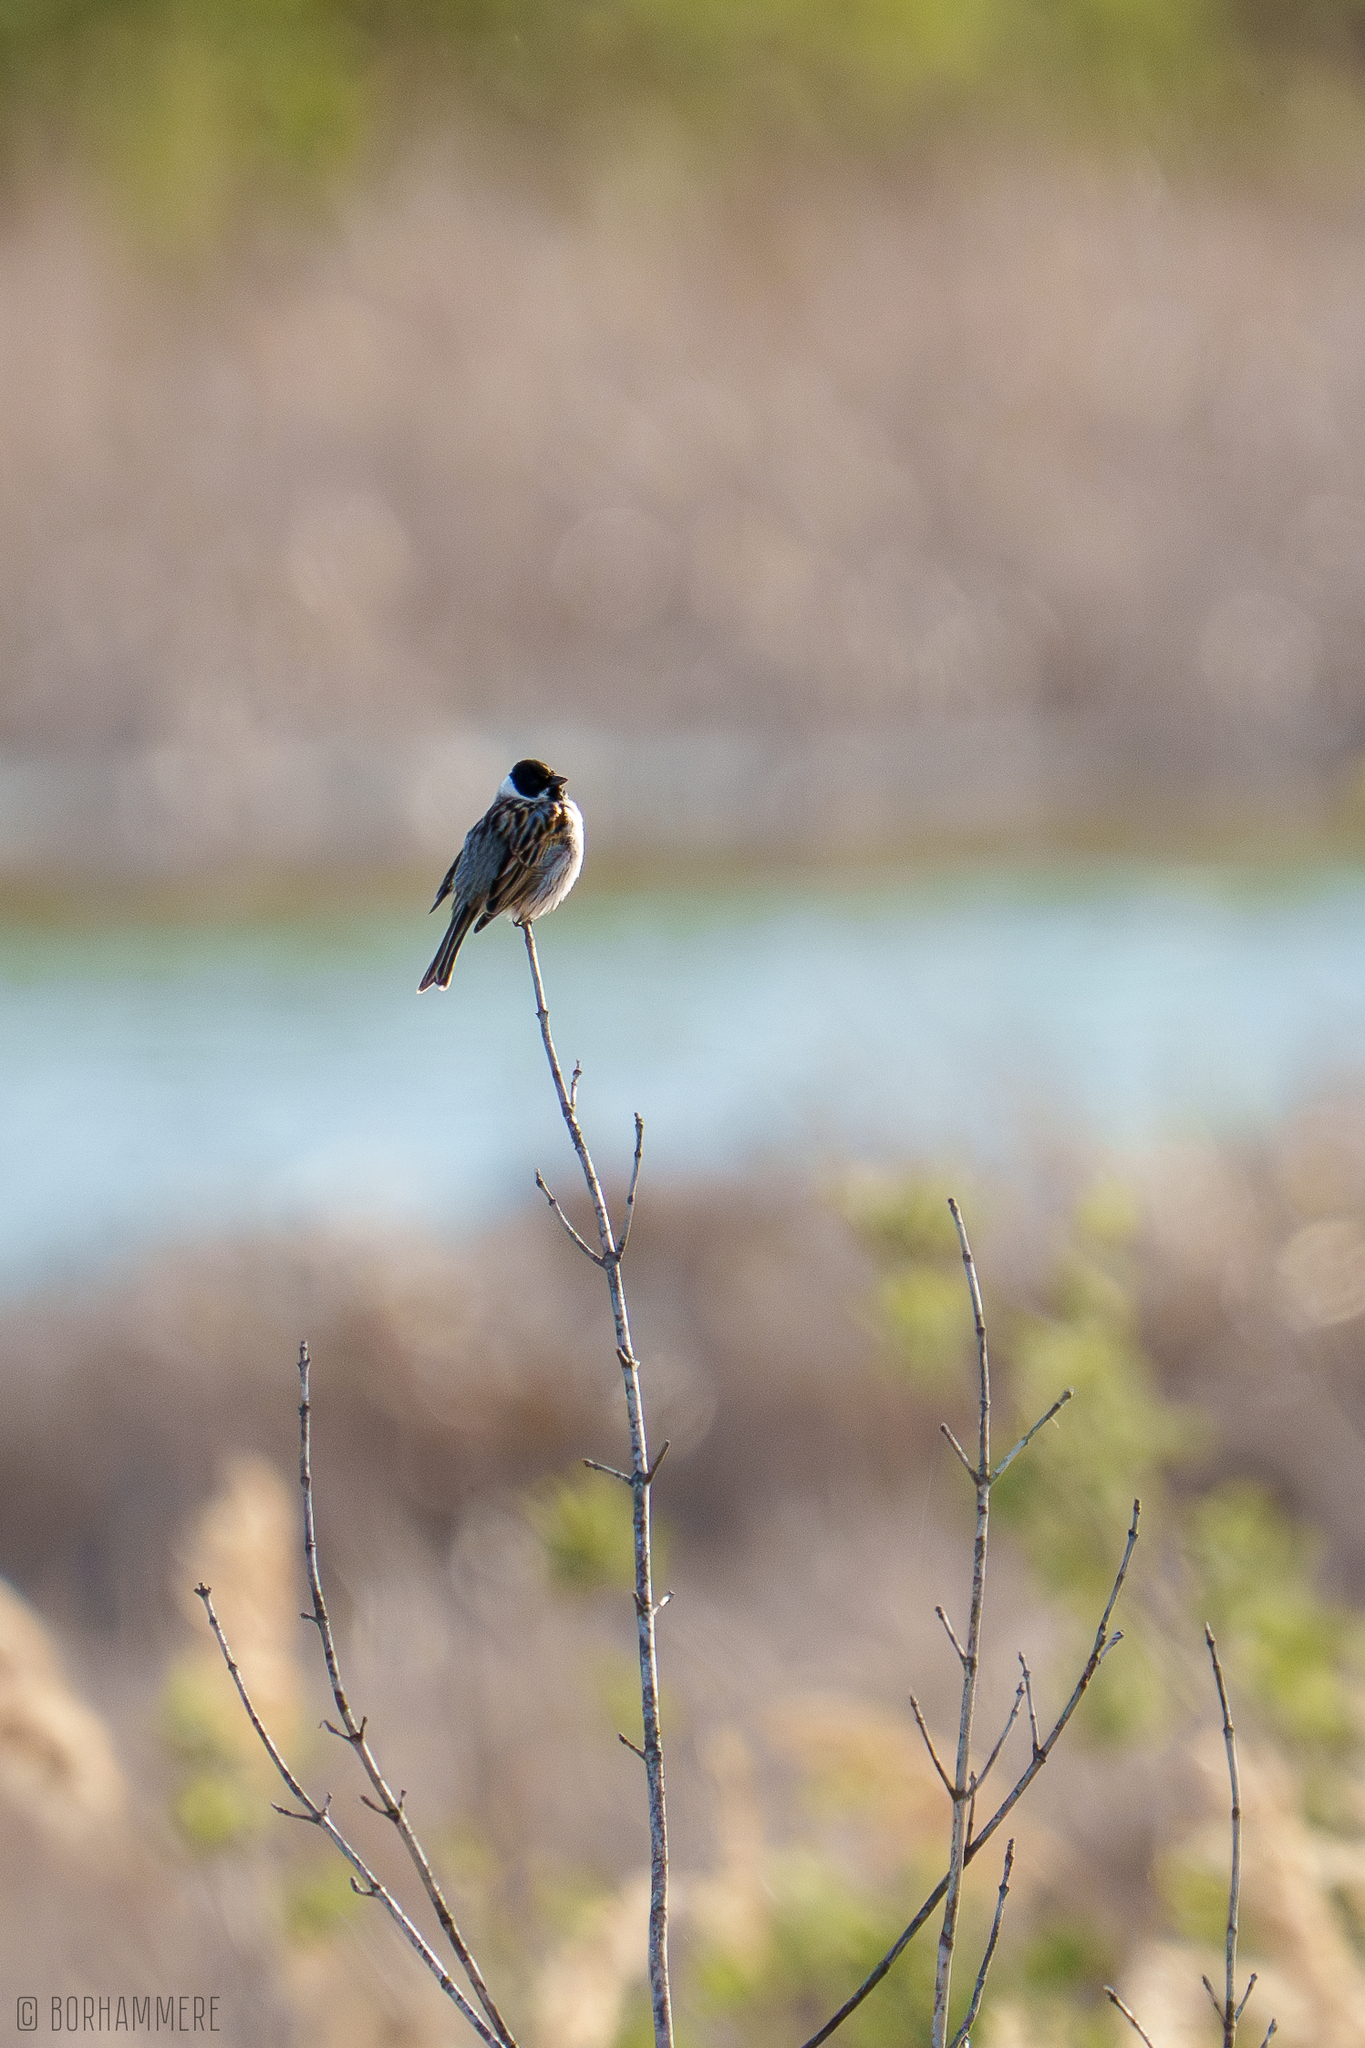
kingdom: Animalia
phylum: Chordata
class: Aves
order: Passeriformes
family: Emberizidae
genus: Emberiza
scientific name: Emberiza schoeniclus
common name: Reed bunting
